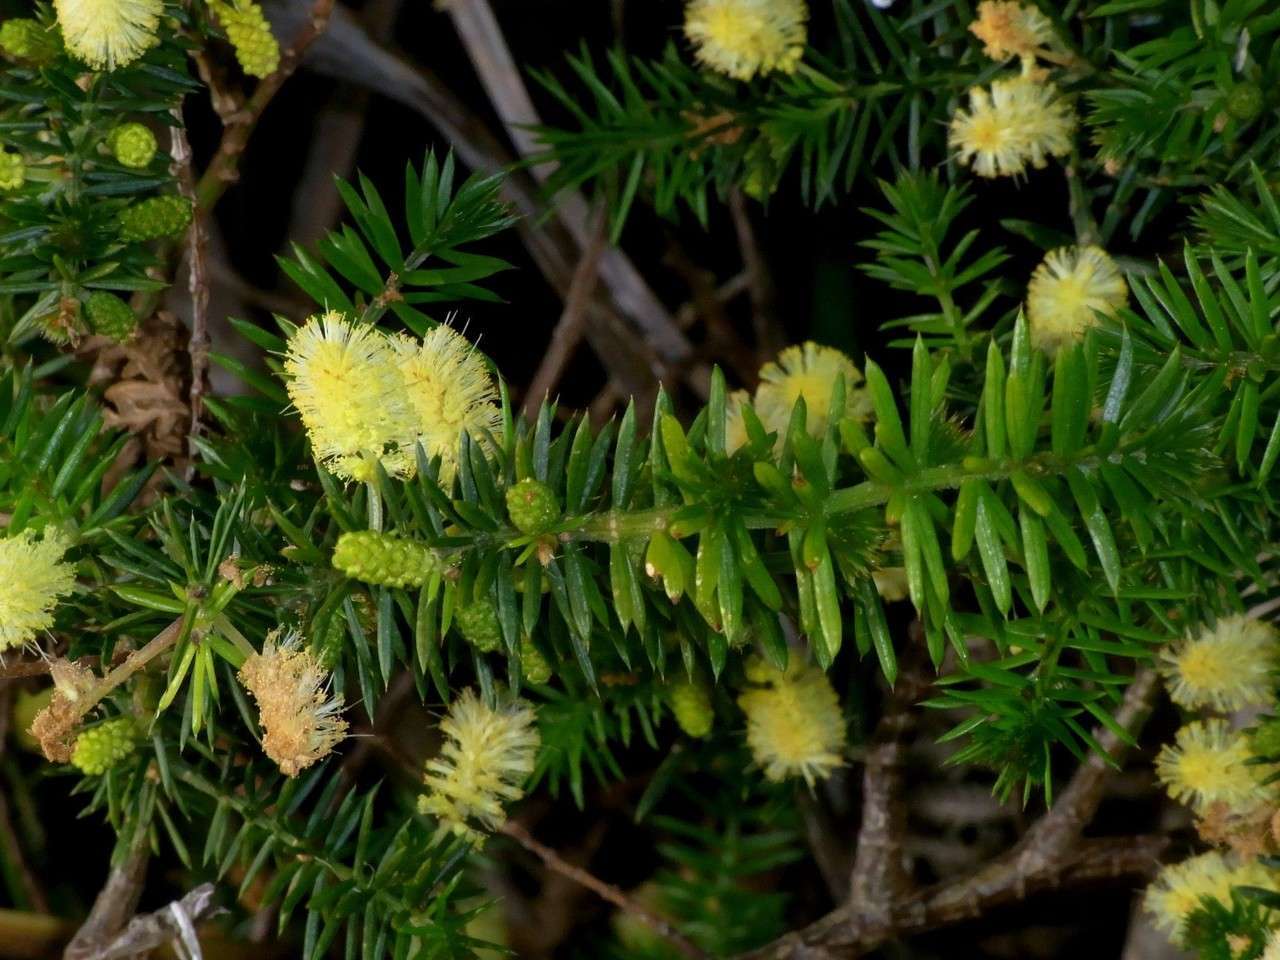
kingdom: Plantae
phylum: Tracheophyta
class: Magnoliopsida
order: Fabales
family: Fabaceae
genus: Acacia
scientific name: Acacia verticillata
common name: Prickly moses
